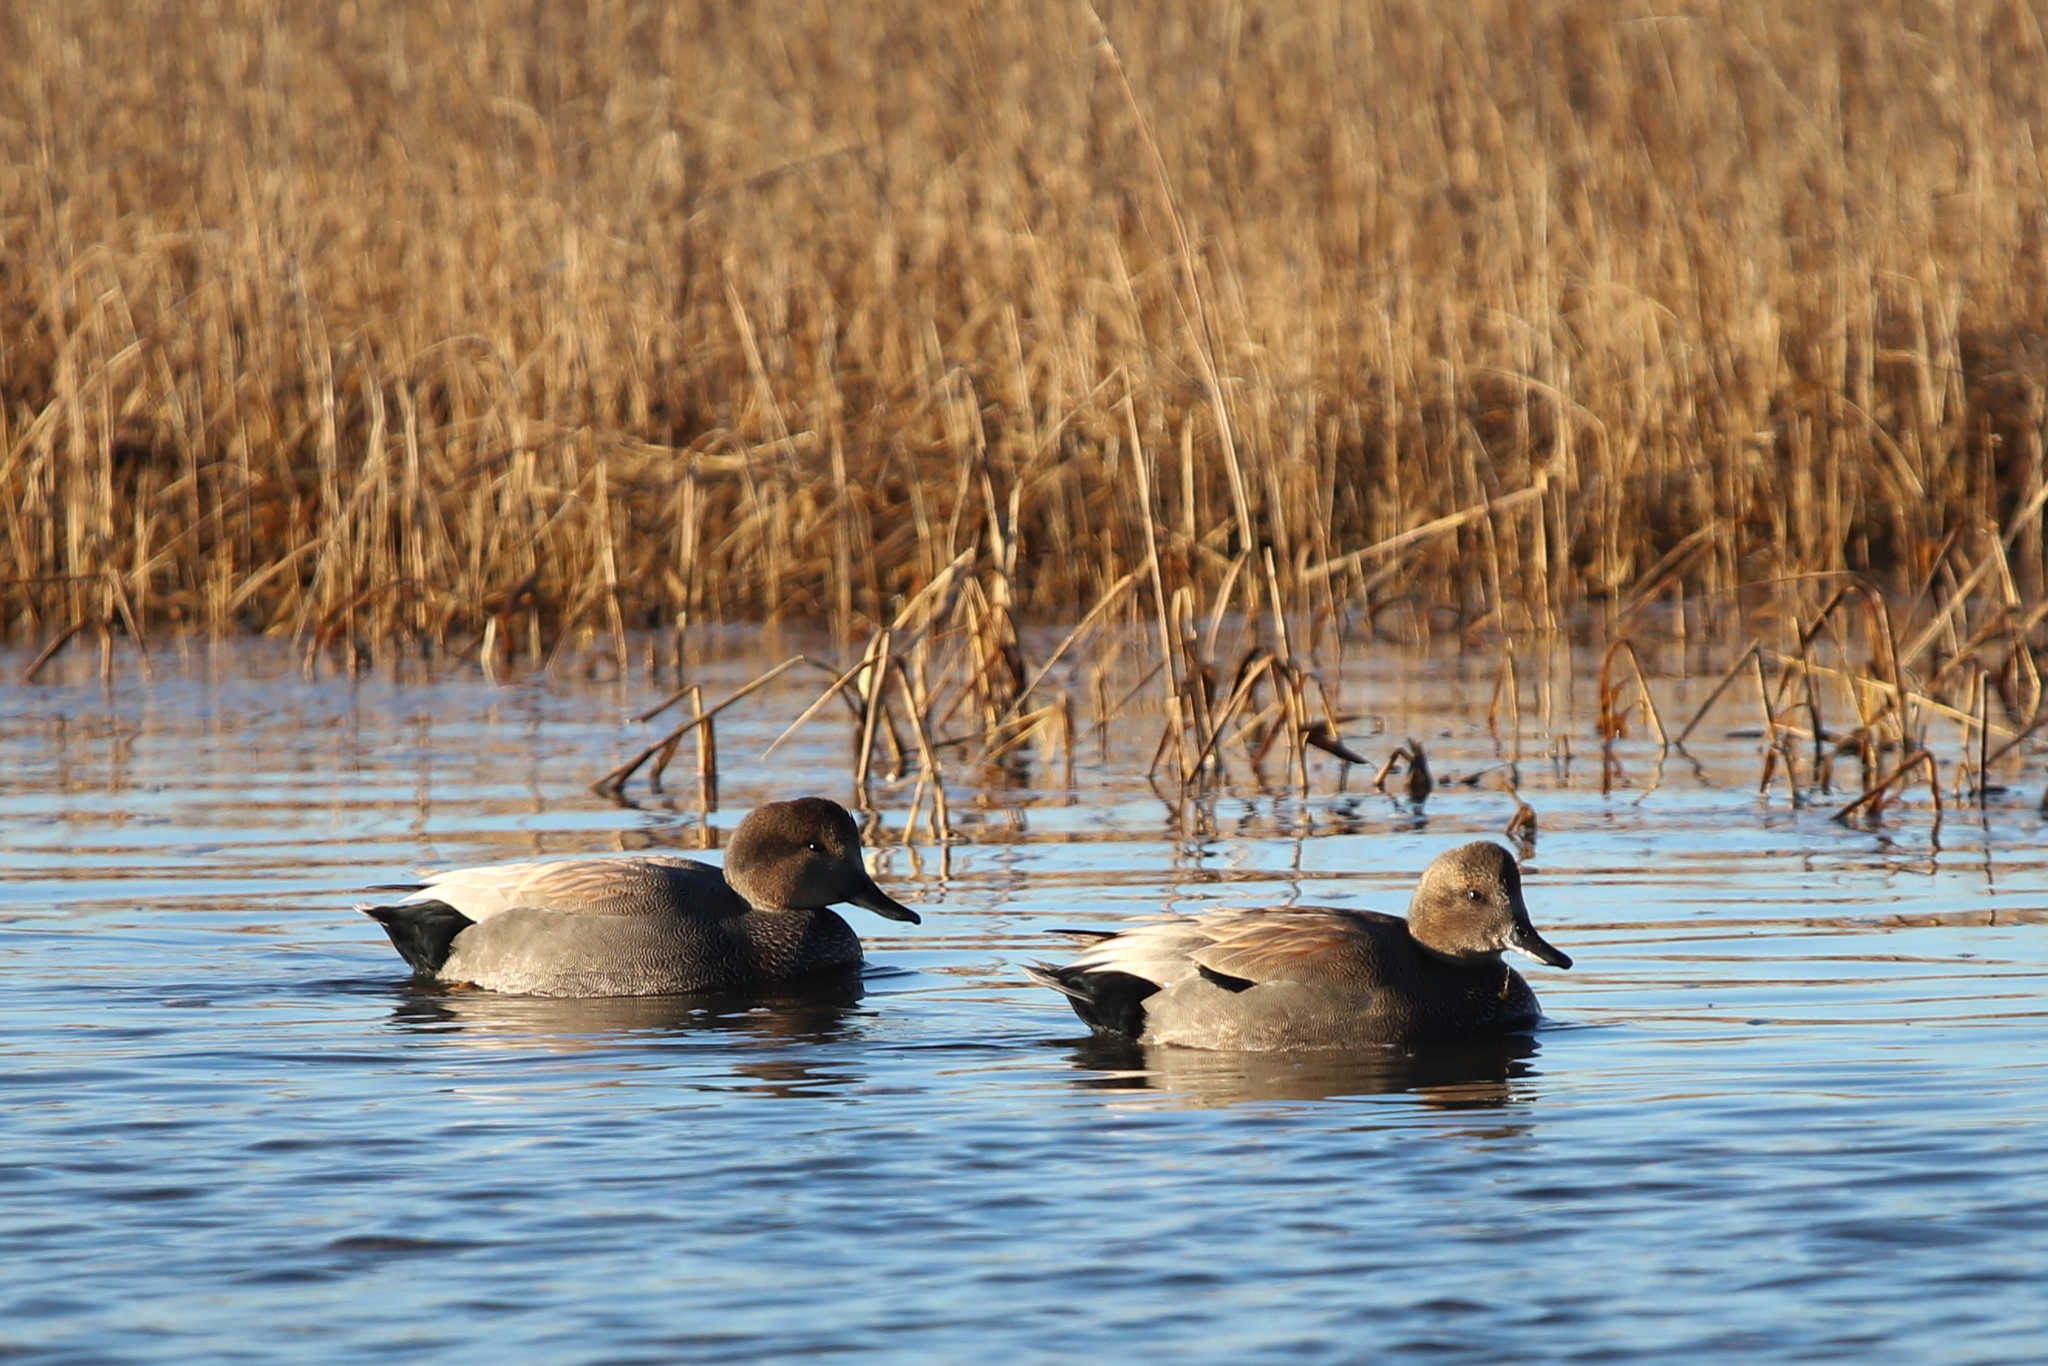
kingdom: Animalia
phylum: Chordata
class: Aves
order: Anseriformes
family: Anatidae
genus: Mareca
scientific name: Mareca strepera
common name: Gadwall
